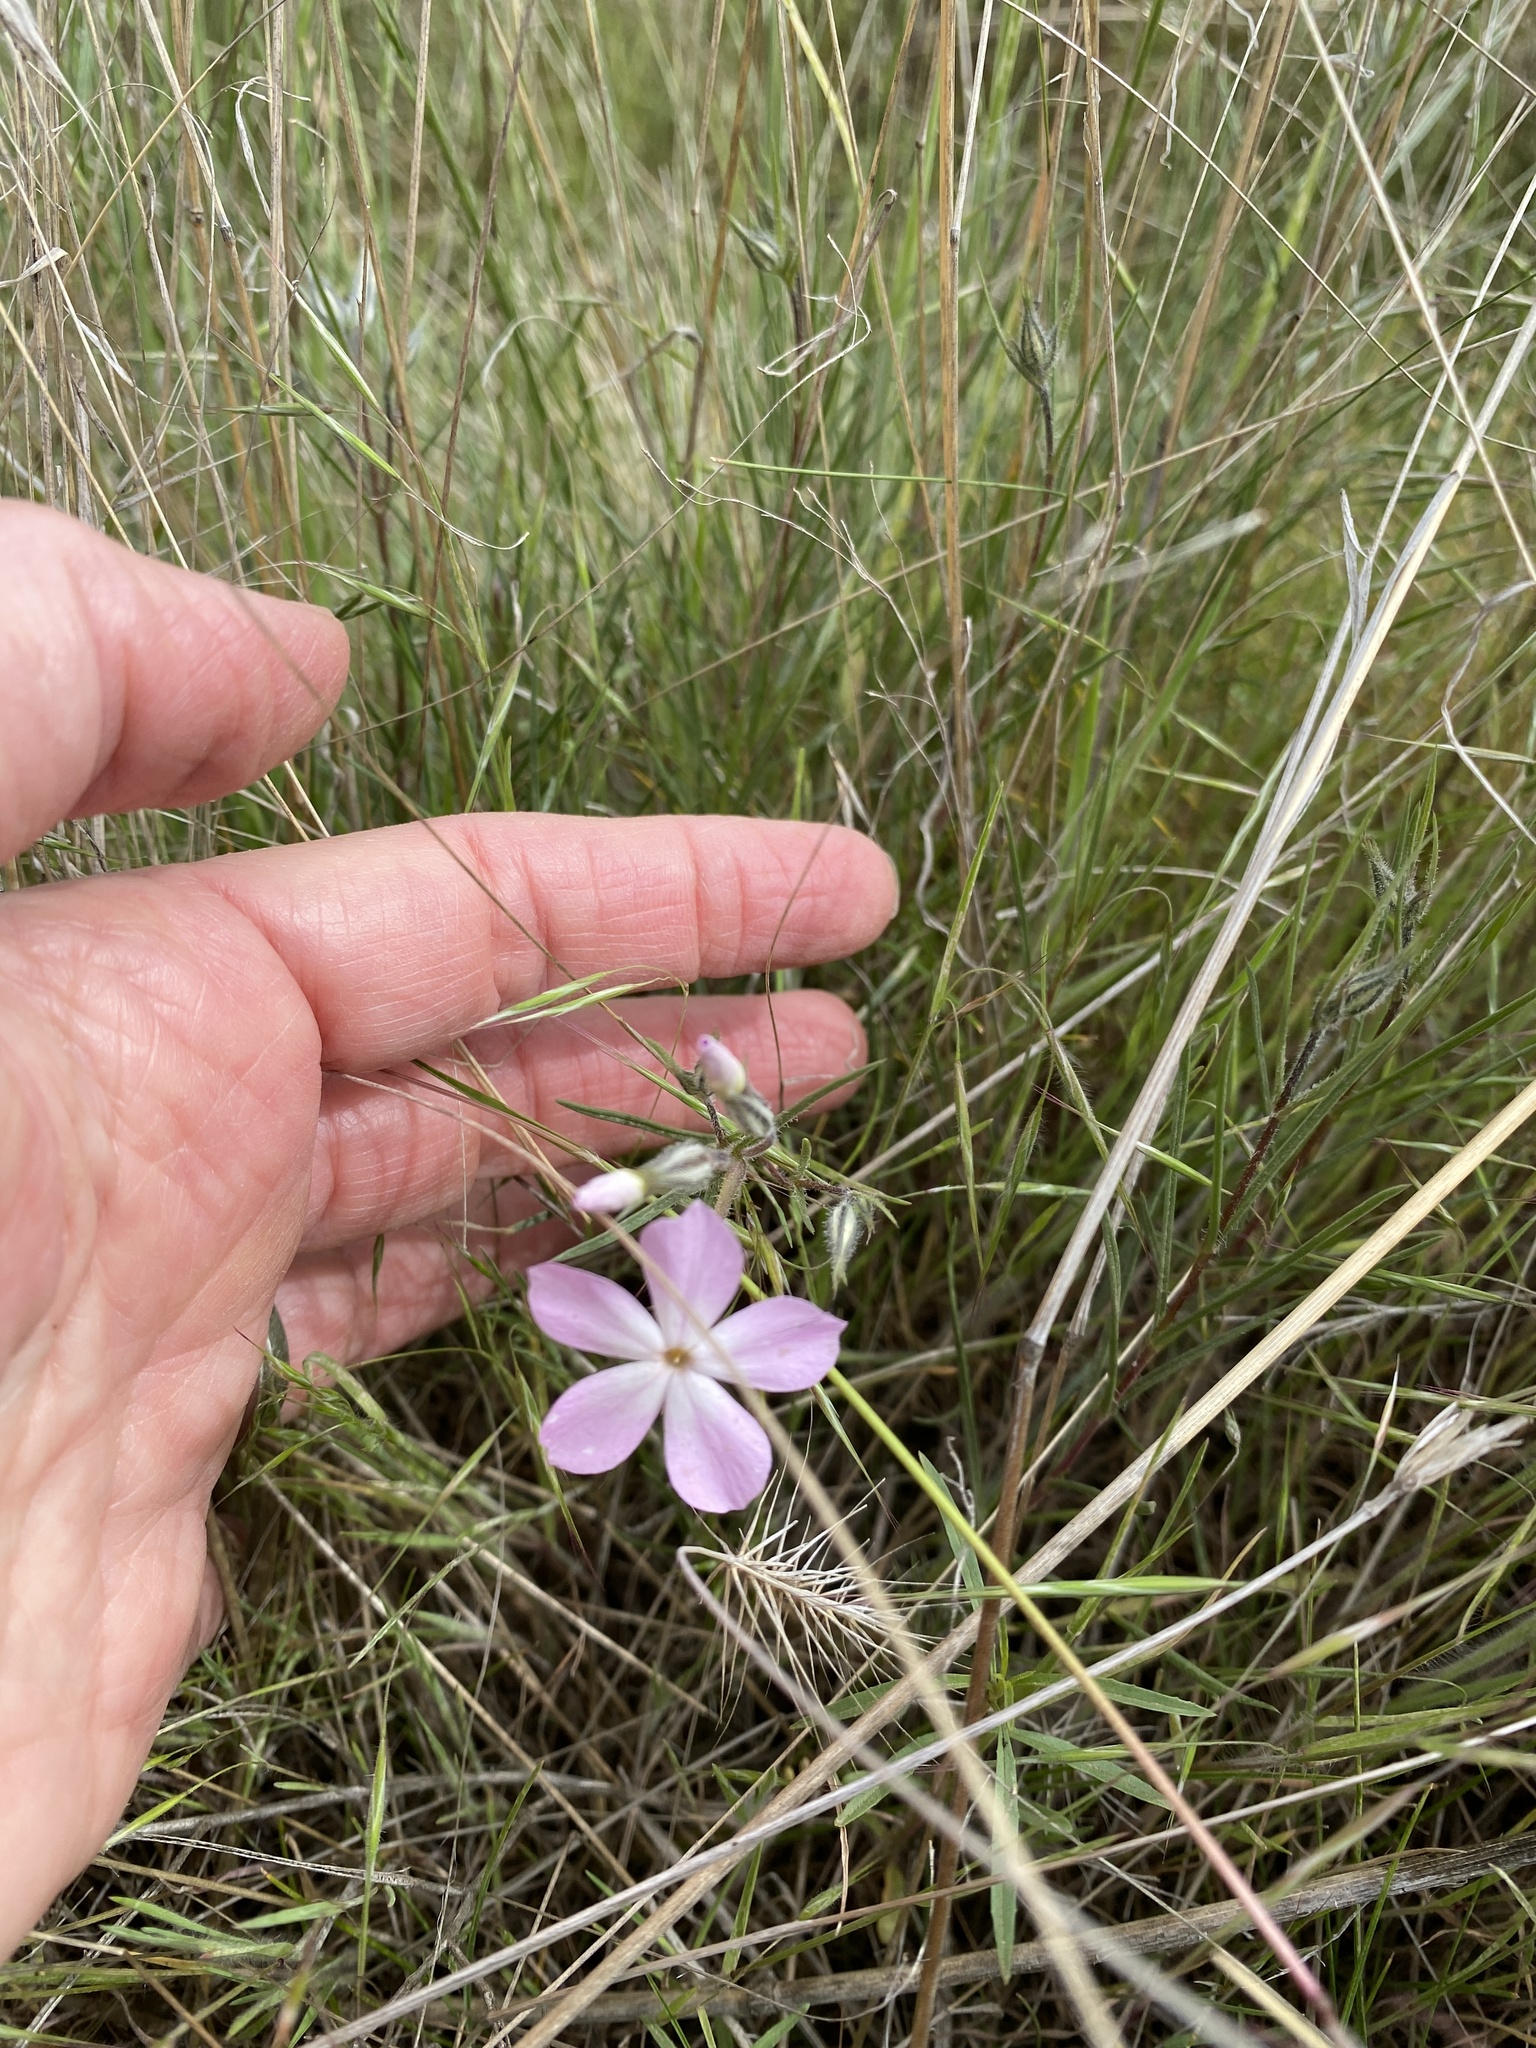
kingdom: Plantae
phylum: Tracheophyta
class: Magnoliopsida
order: Ericales
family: Polemoniaceae
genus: Phlox
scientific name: Phlox longifolia
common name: Longleaf phlox
